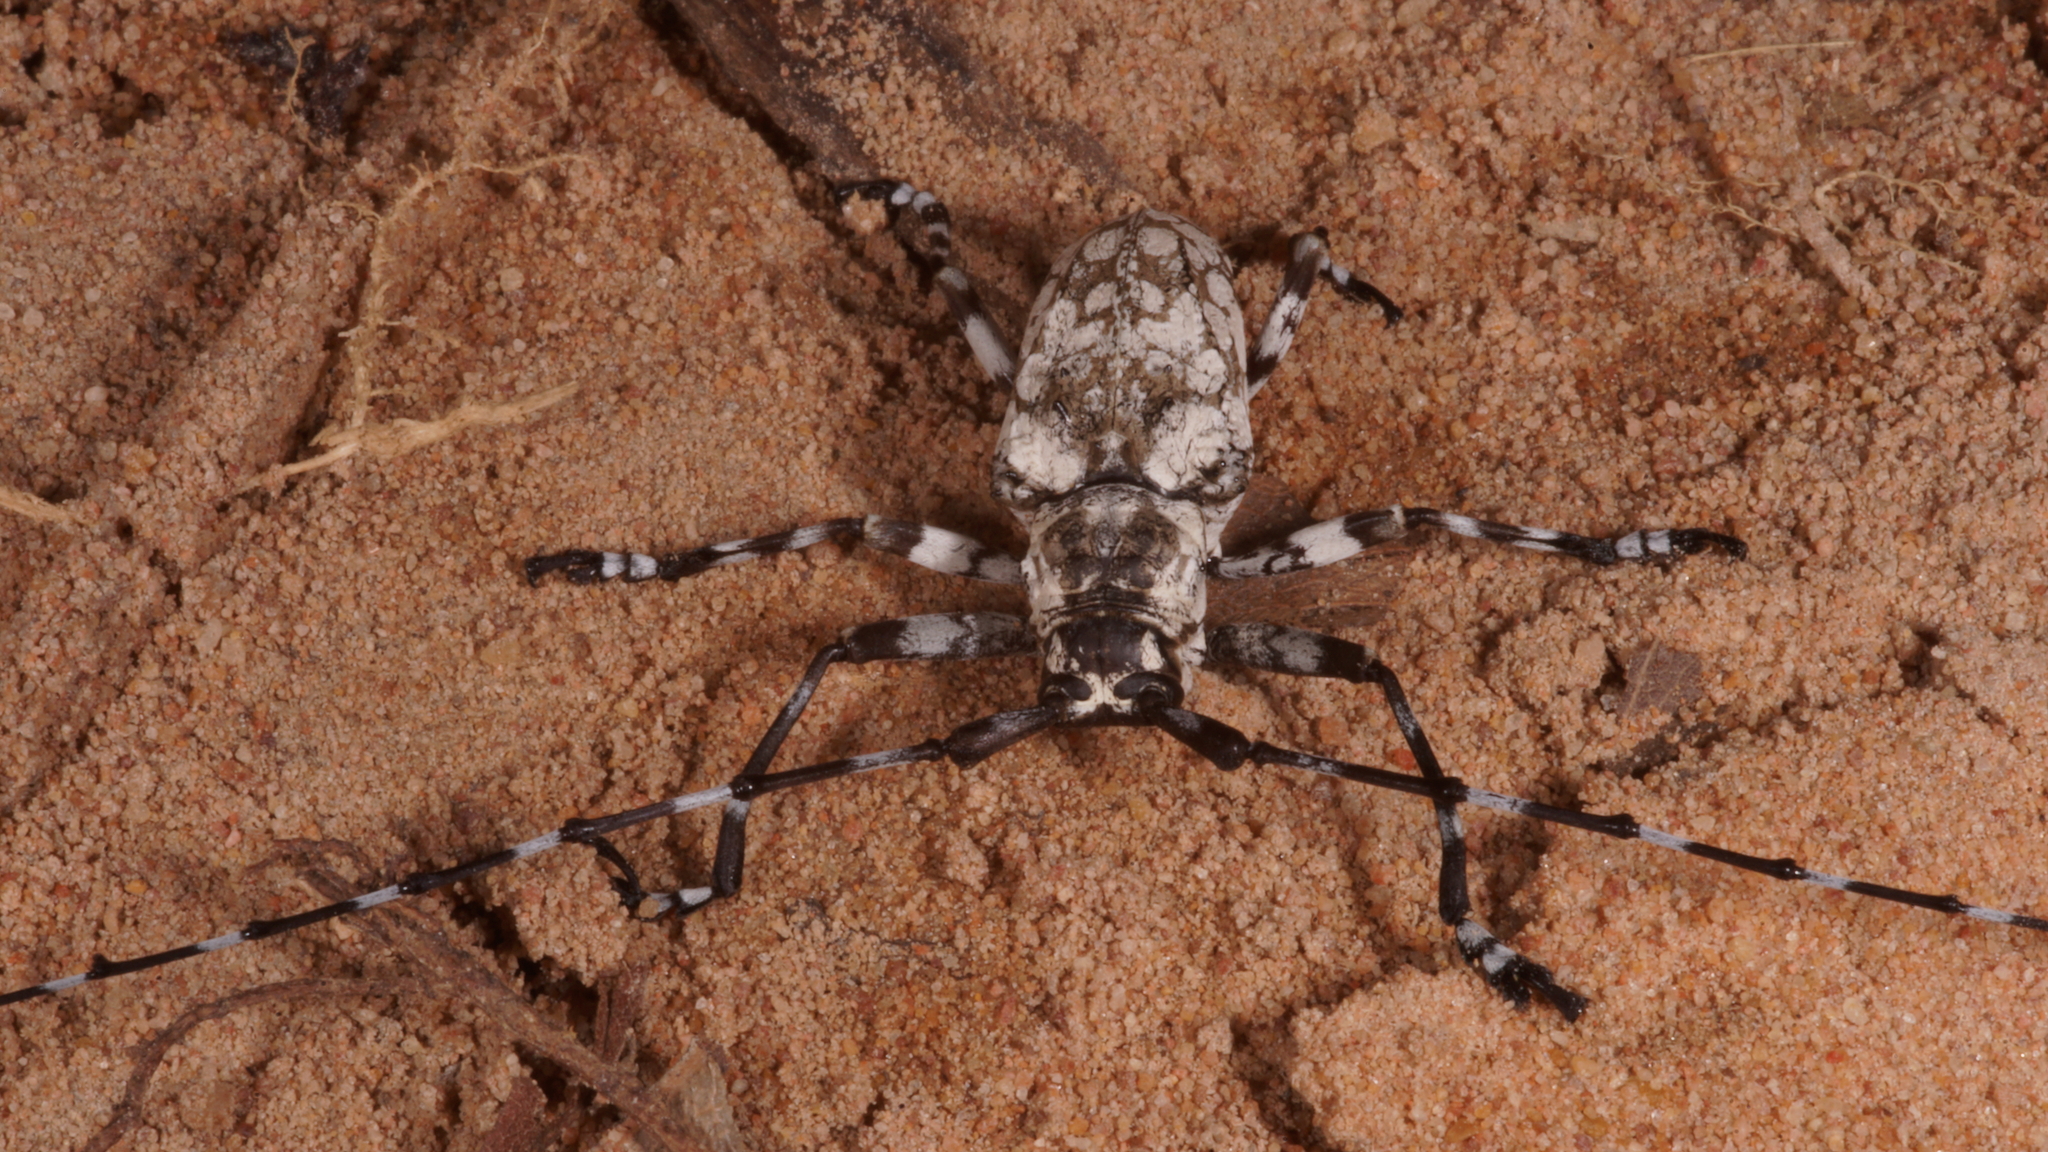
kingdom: Animalia
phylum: Arthropoda
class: Insecta
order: Coleoptera
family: Cerambycidae
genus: Palimna
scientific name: Palimna annulata
